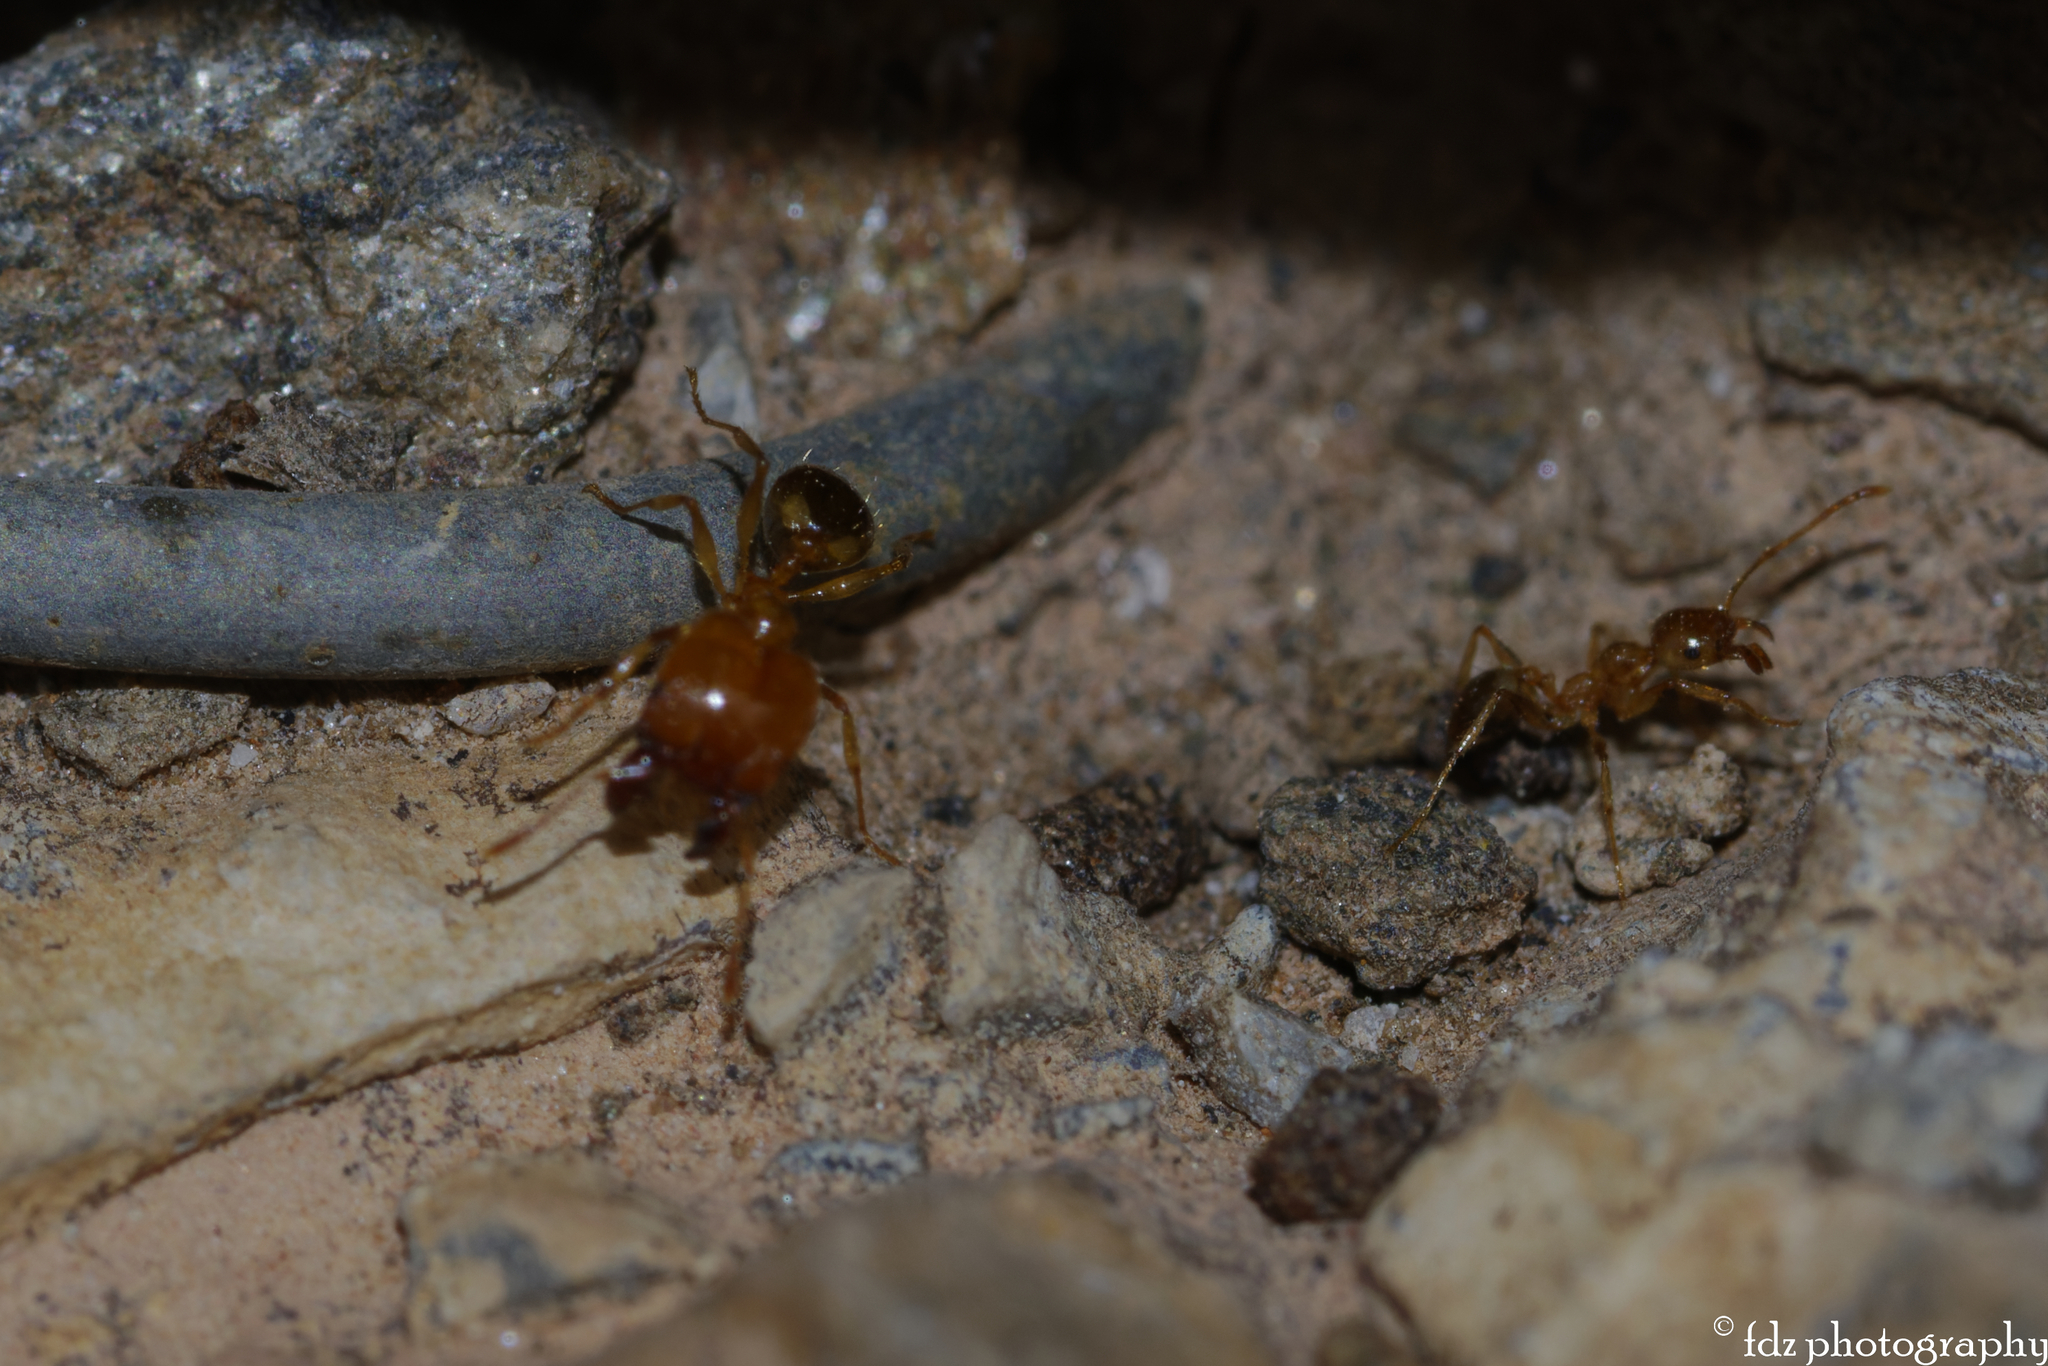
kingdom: Animalia
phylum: Arthropoda
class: Insecta
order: Hymenoptera
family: Formicidae
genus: Pheidole
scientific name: Pheidole pallidula
